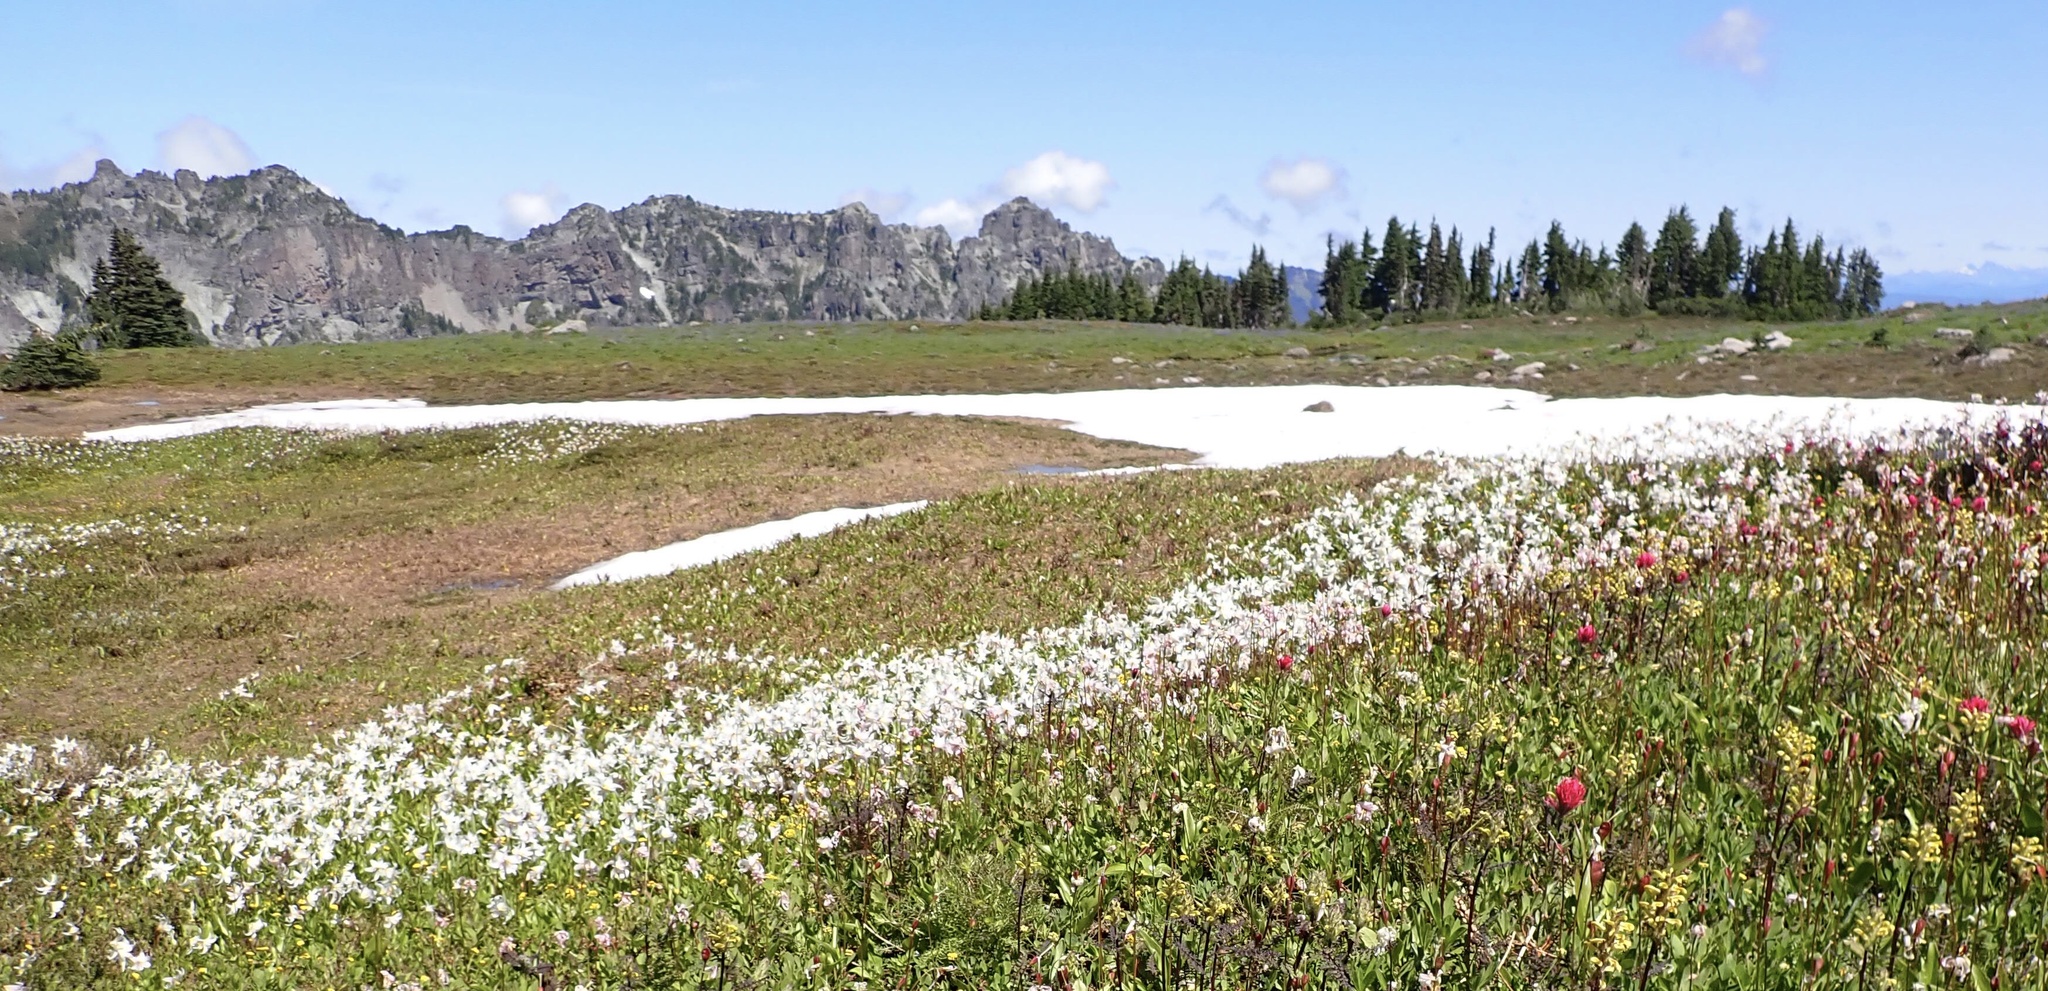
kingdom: Plantae
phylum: Tracheophyta
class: Liliopsida
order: Liliales
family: Liliaceae
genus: Erythronium
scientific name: Erythronium montanum
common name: Avalanche lily
